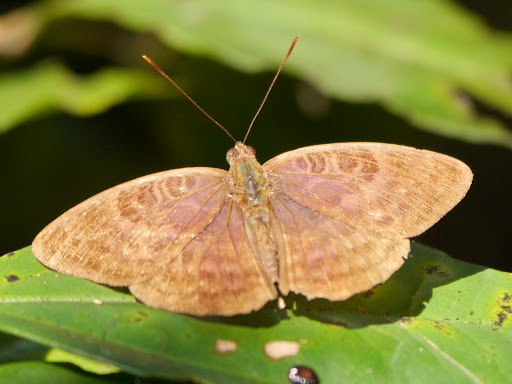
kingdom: Animalia
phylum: Arthropoda
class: Insecta
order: Lepidoptera
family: Nymphalidae
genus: Euriphene
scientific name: Euriphene tadema
